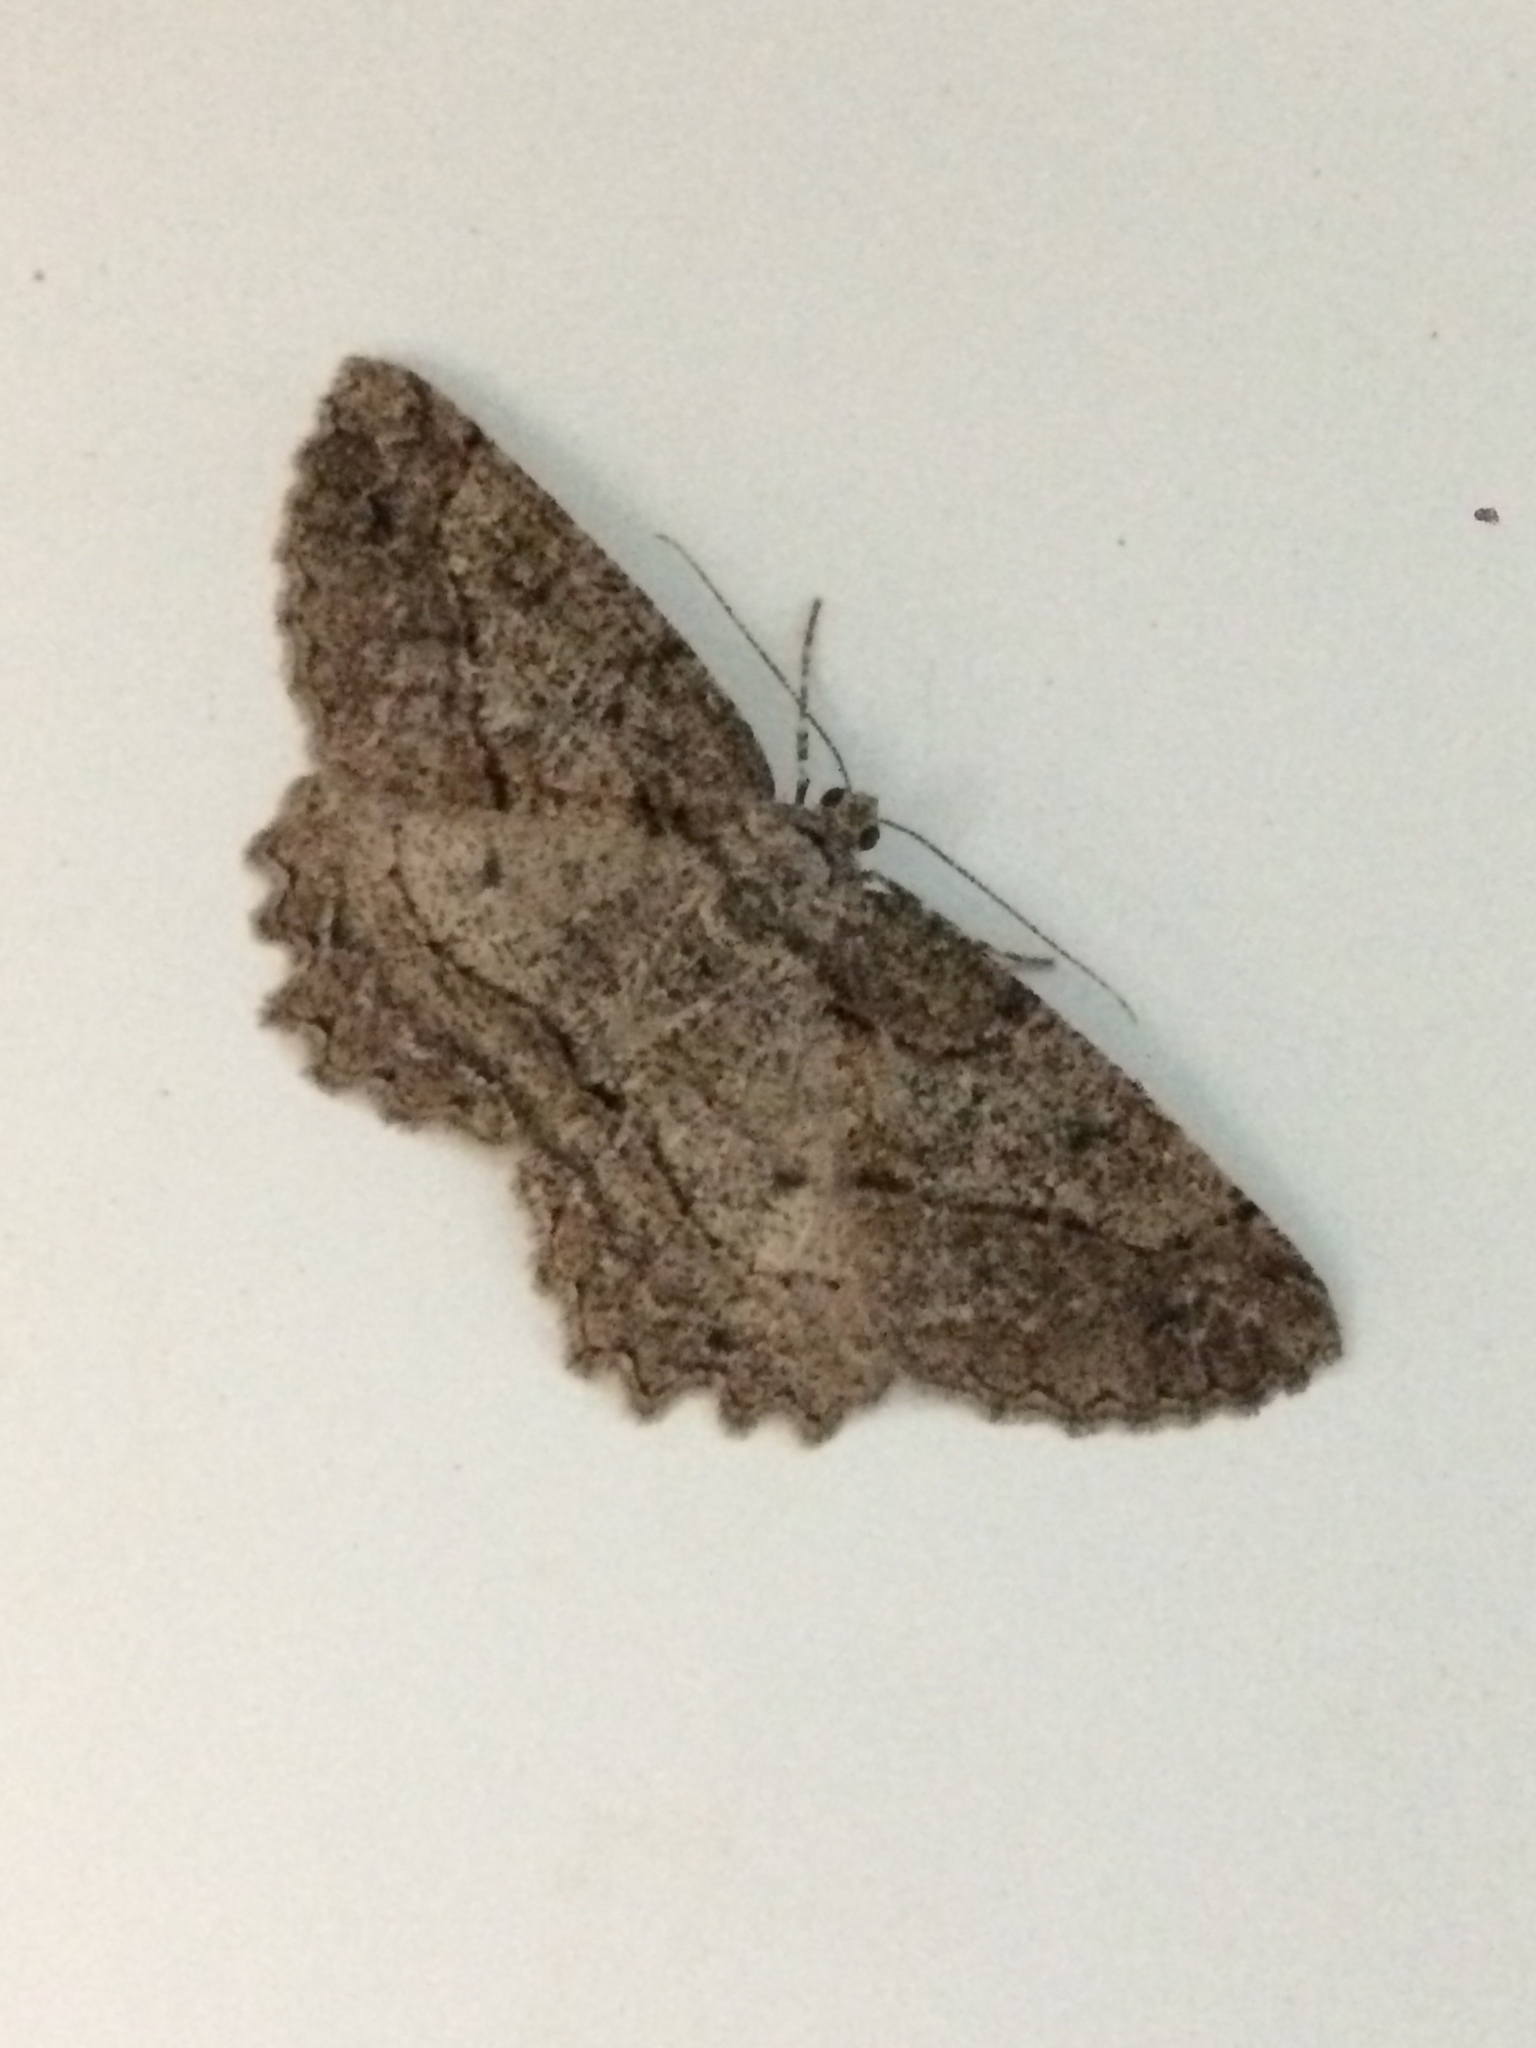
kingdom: Animalia
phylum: Arthropoda
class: Insecta
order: Lepidoptera
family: Geometridae
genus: Neoalcis
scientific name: Neoalcis californiaria
